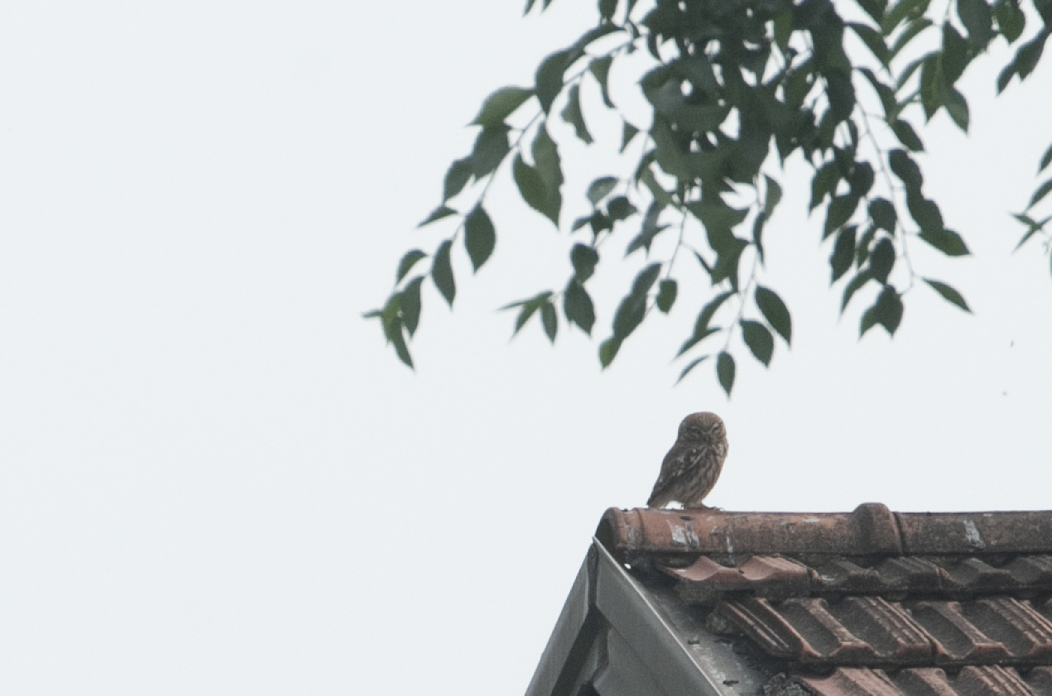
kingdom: Animalia
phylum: Chordata
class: Aves
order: Strigiformes
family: Strigidae
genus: Athene
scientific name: Athene noctua
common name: Little owl
